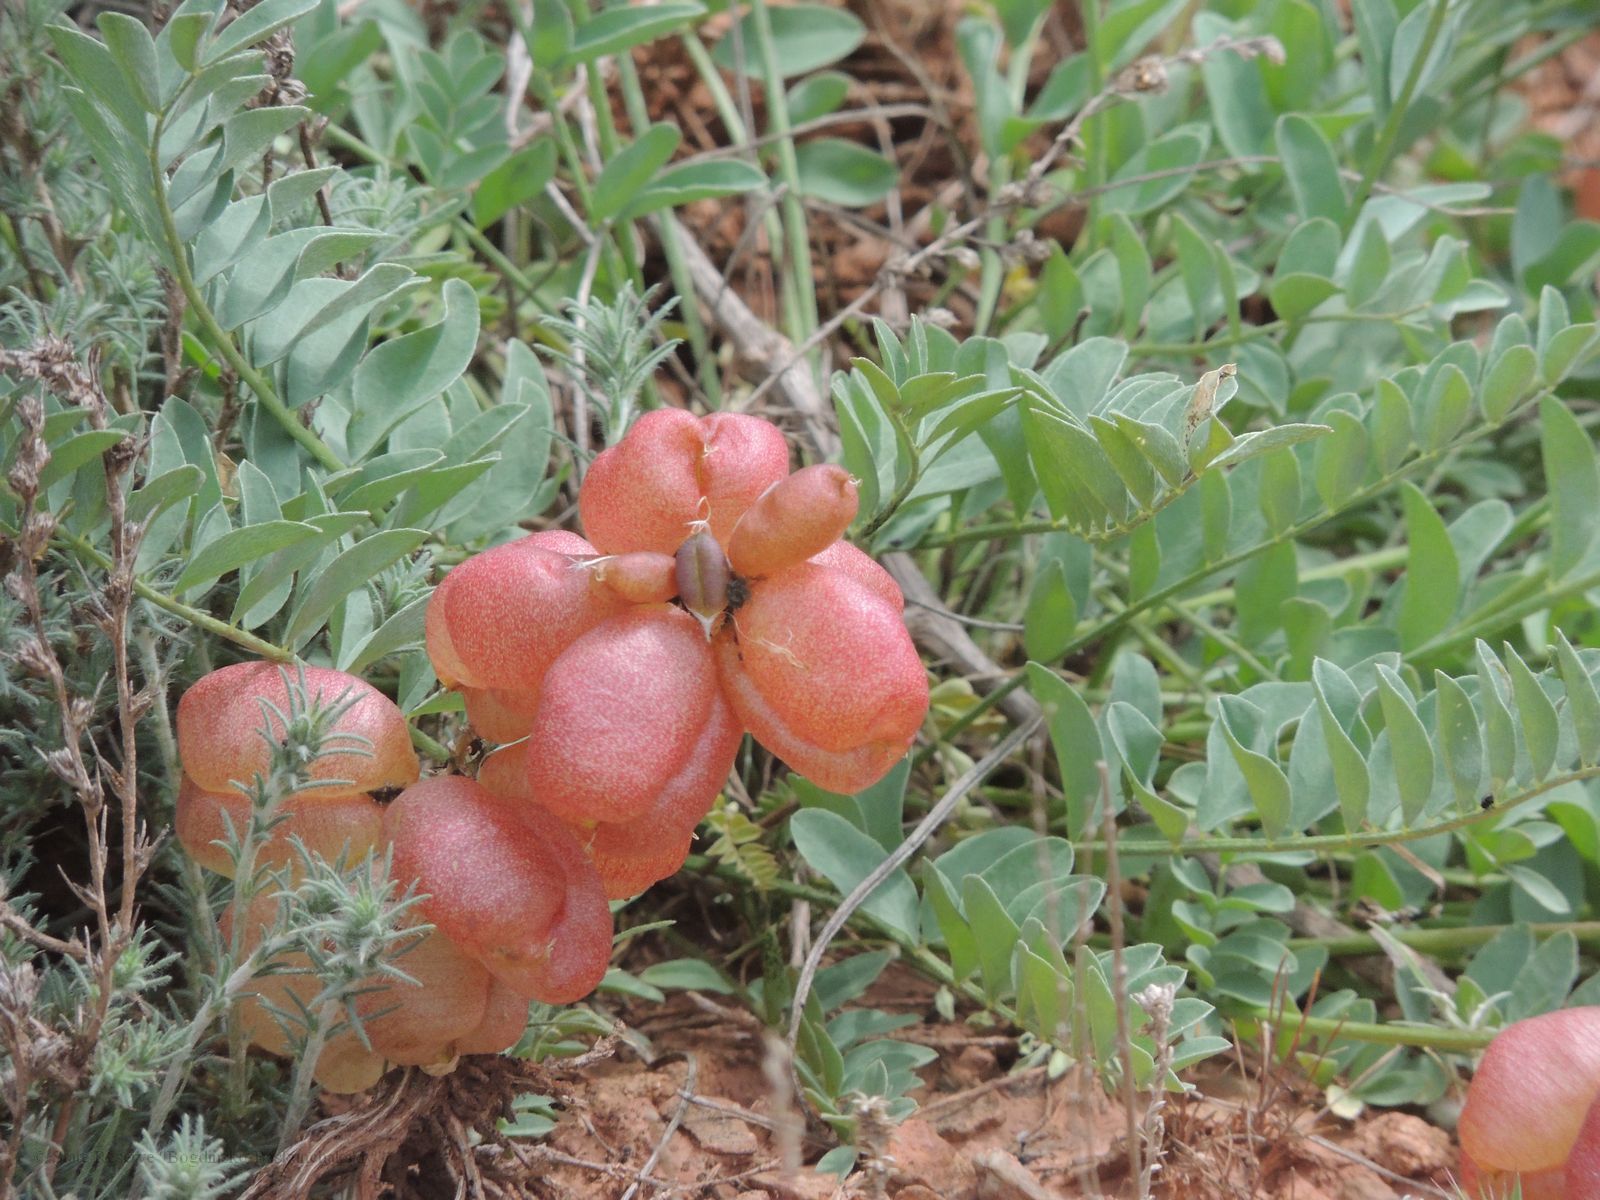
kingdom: Plantae
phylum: Tracheophyta
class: Magnoliopsida
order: Fabales
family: Fabaceae
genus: Astragalus
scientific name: Astragalus physodes
